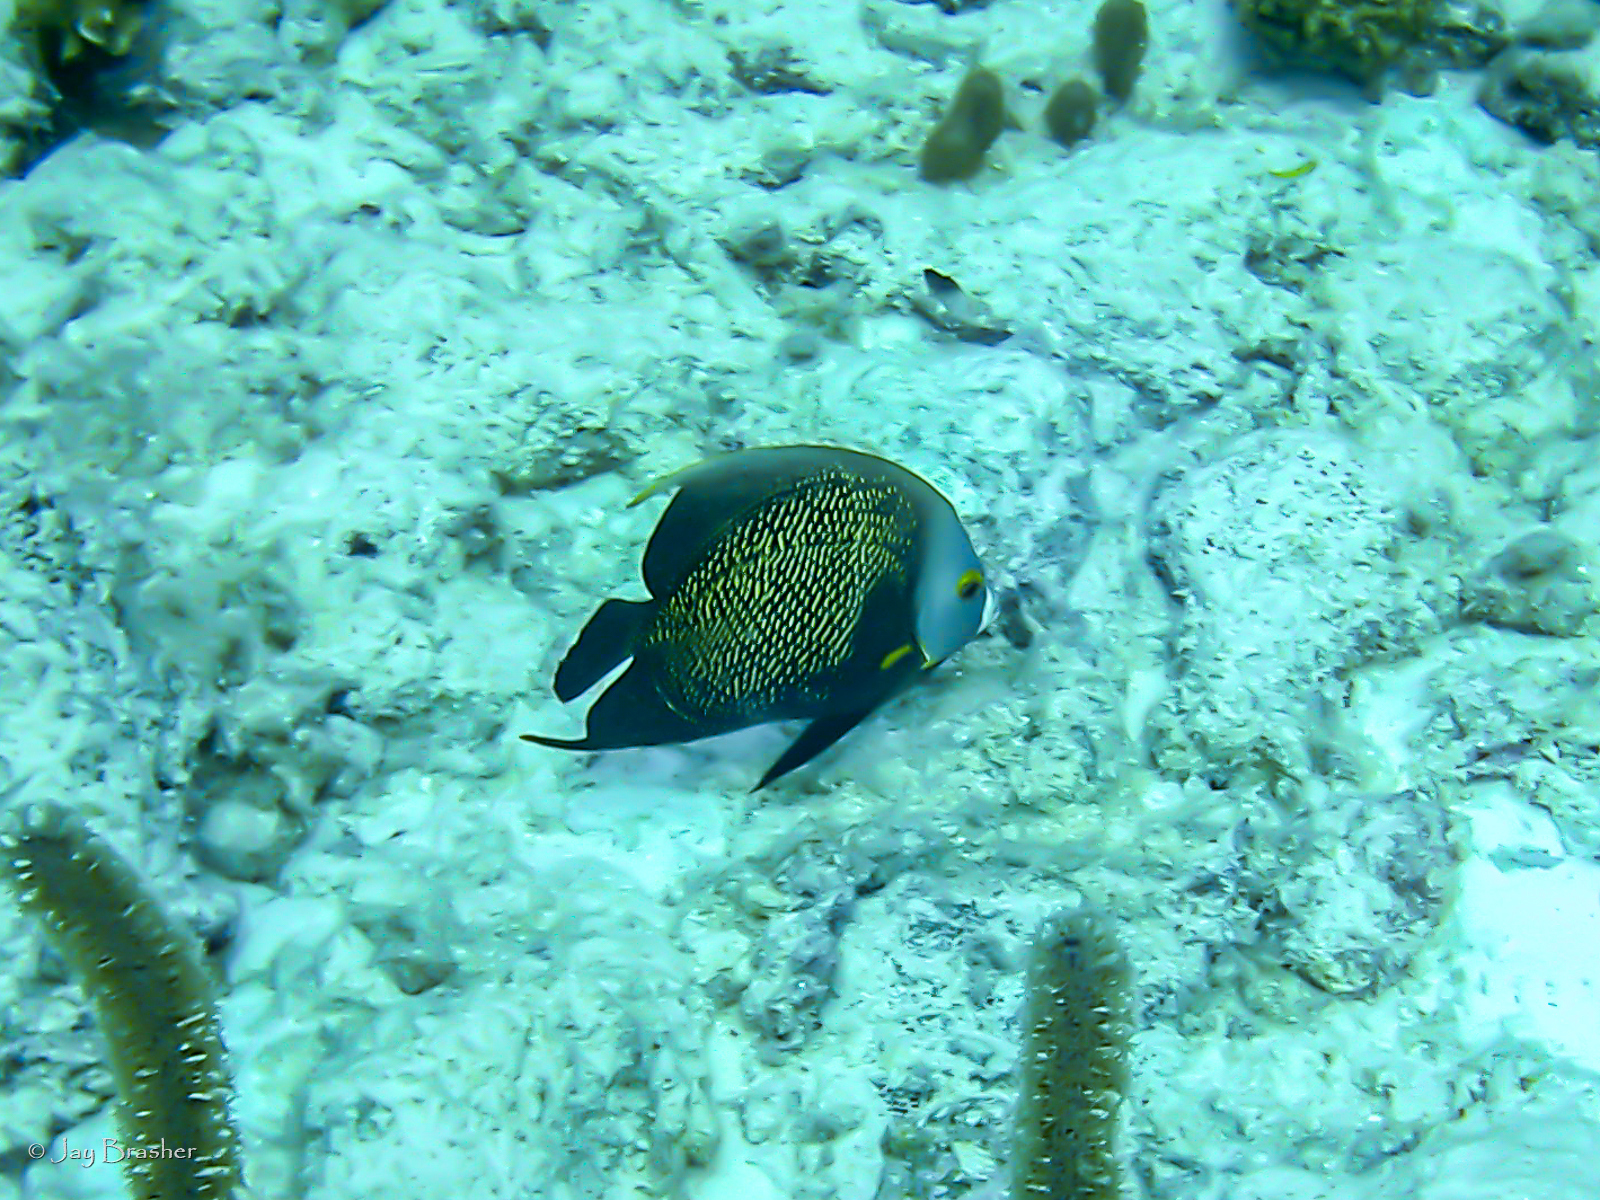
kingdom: Animalia
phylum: Chordata
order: Perciformes
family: Pomacanthidae
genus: Pomacanthus
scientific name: Pomacanthus paru
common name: French angelfish
